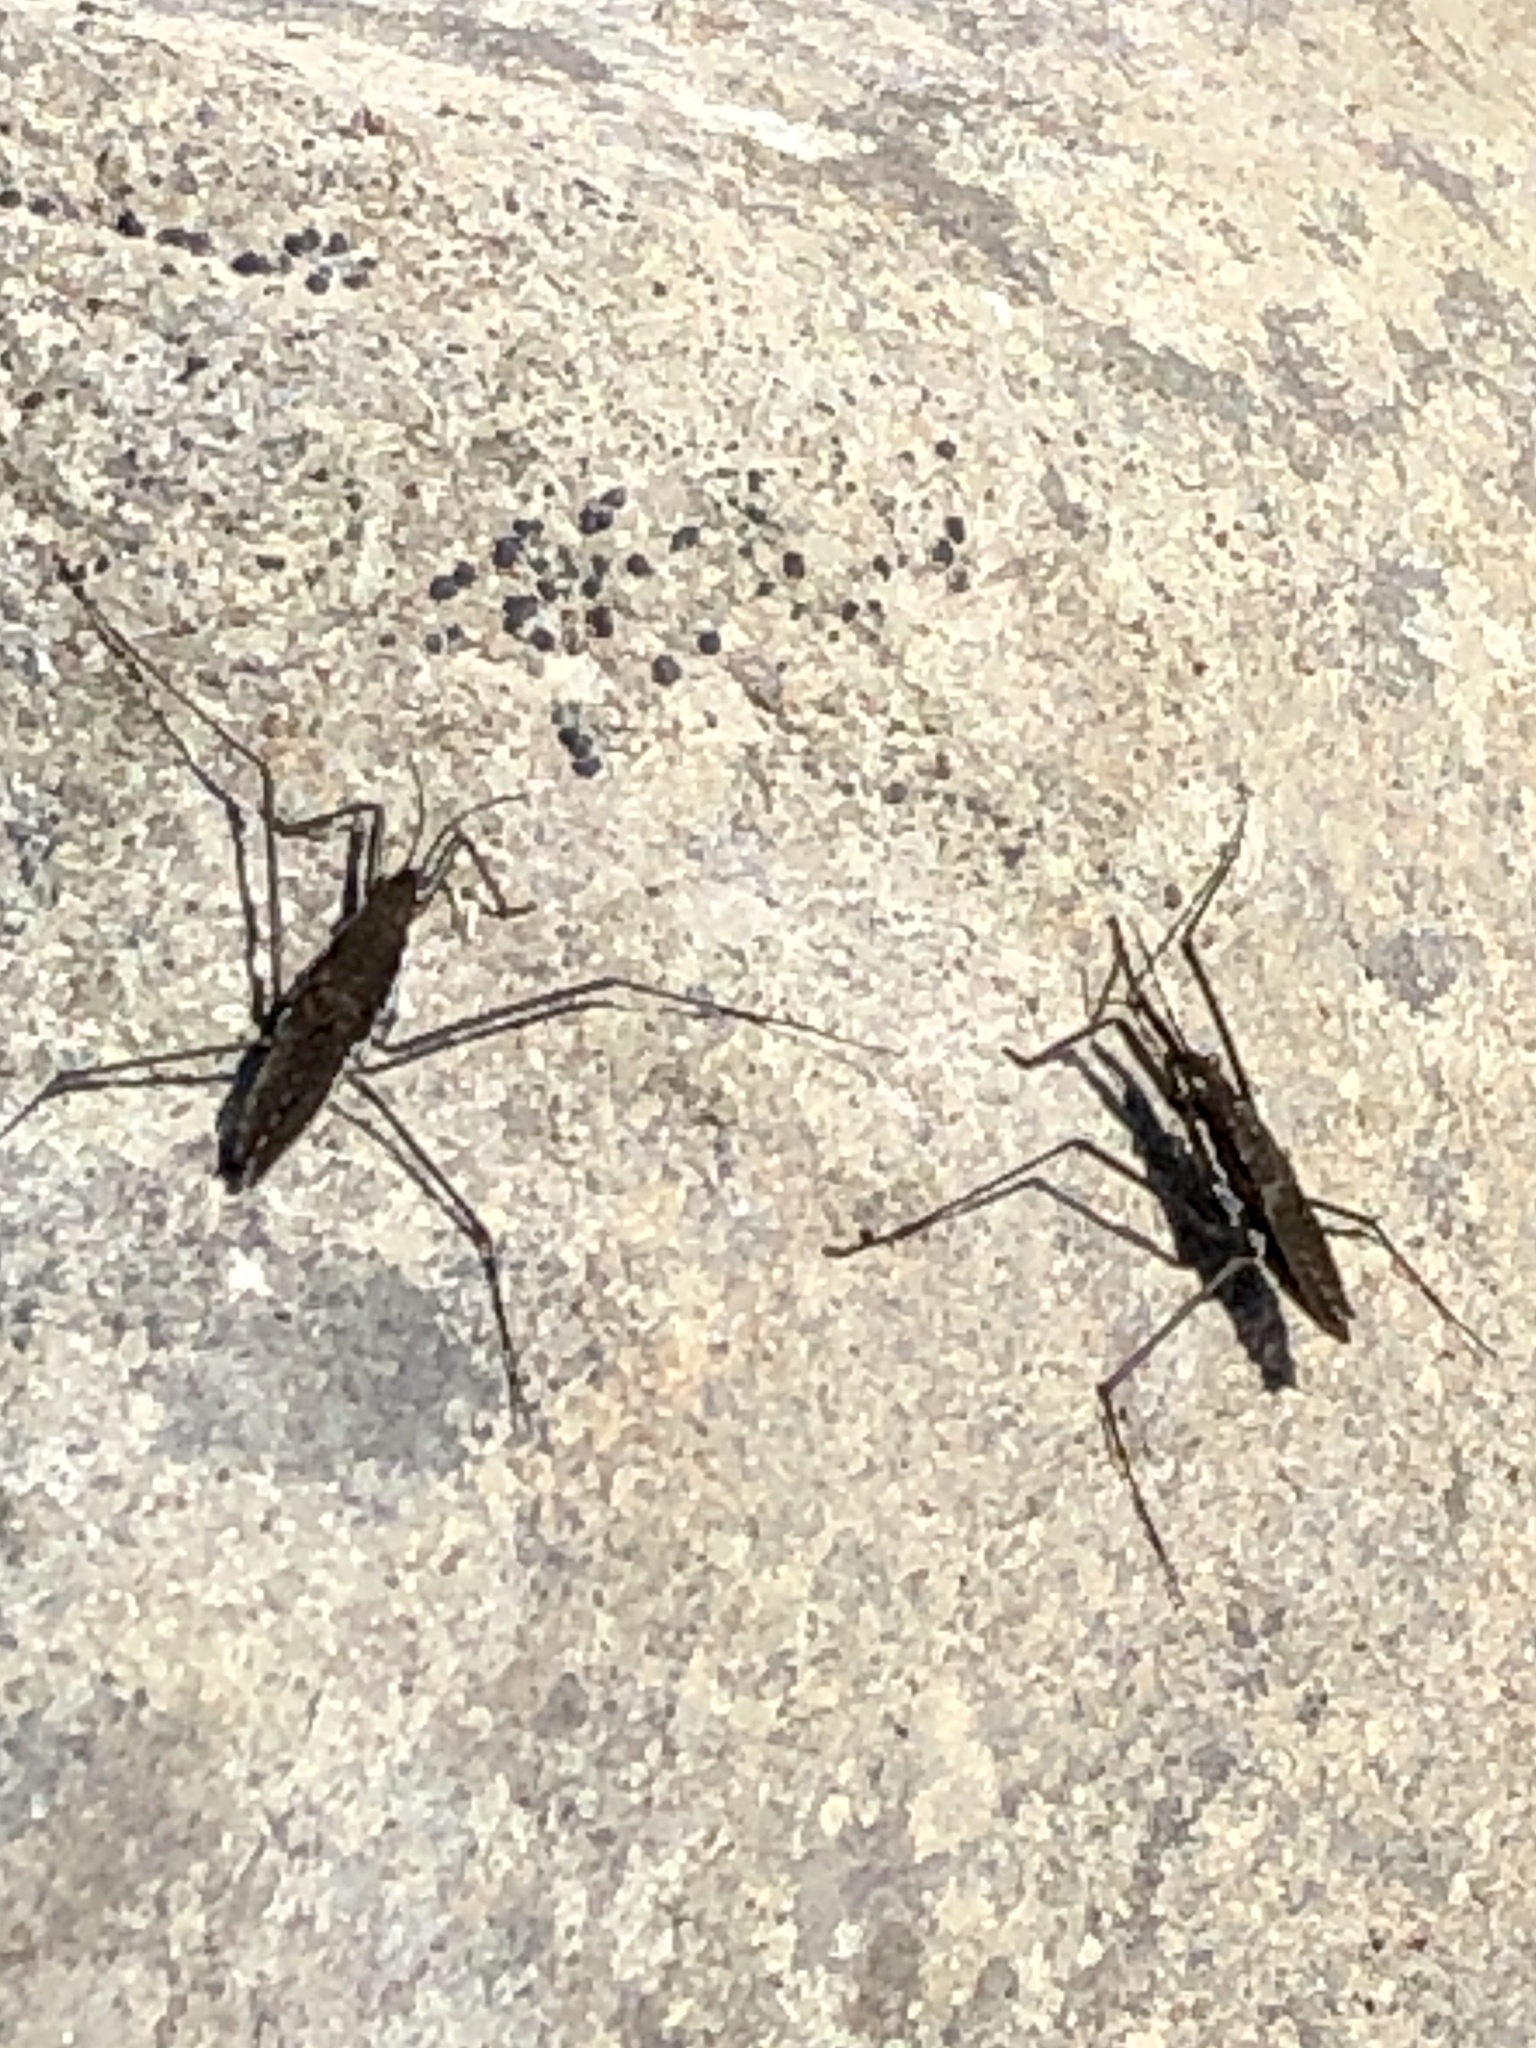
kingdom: Animalia
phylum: Arthropoda
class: Insecta
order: Hemiptera
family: Gerridae
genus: Aquarius
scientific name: Aquarius remigis
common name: Common water strider
